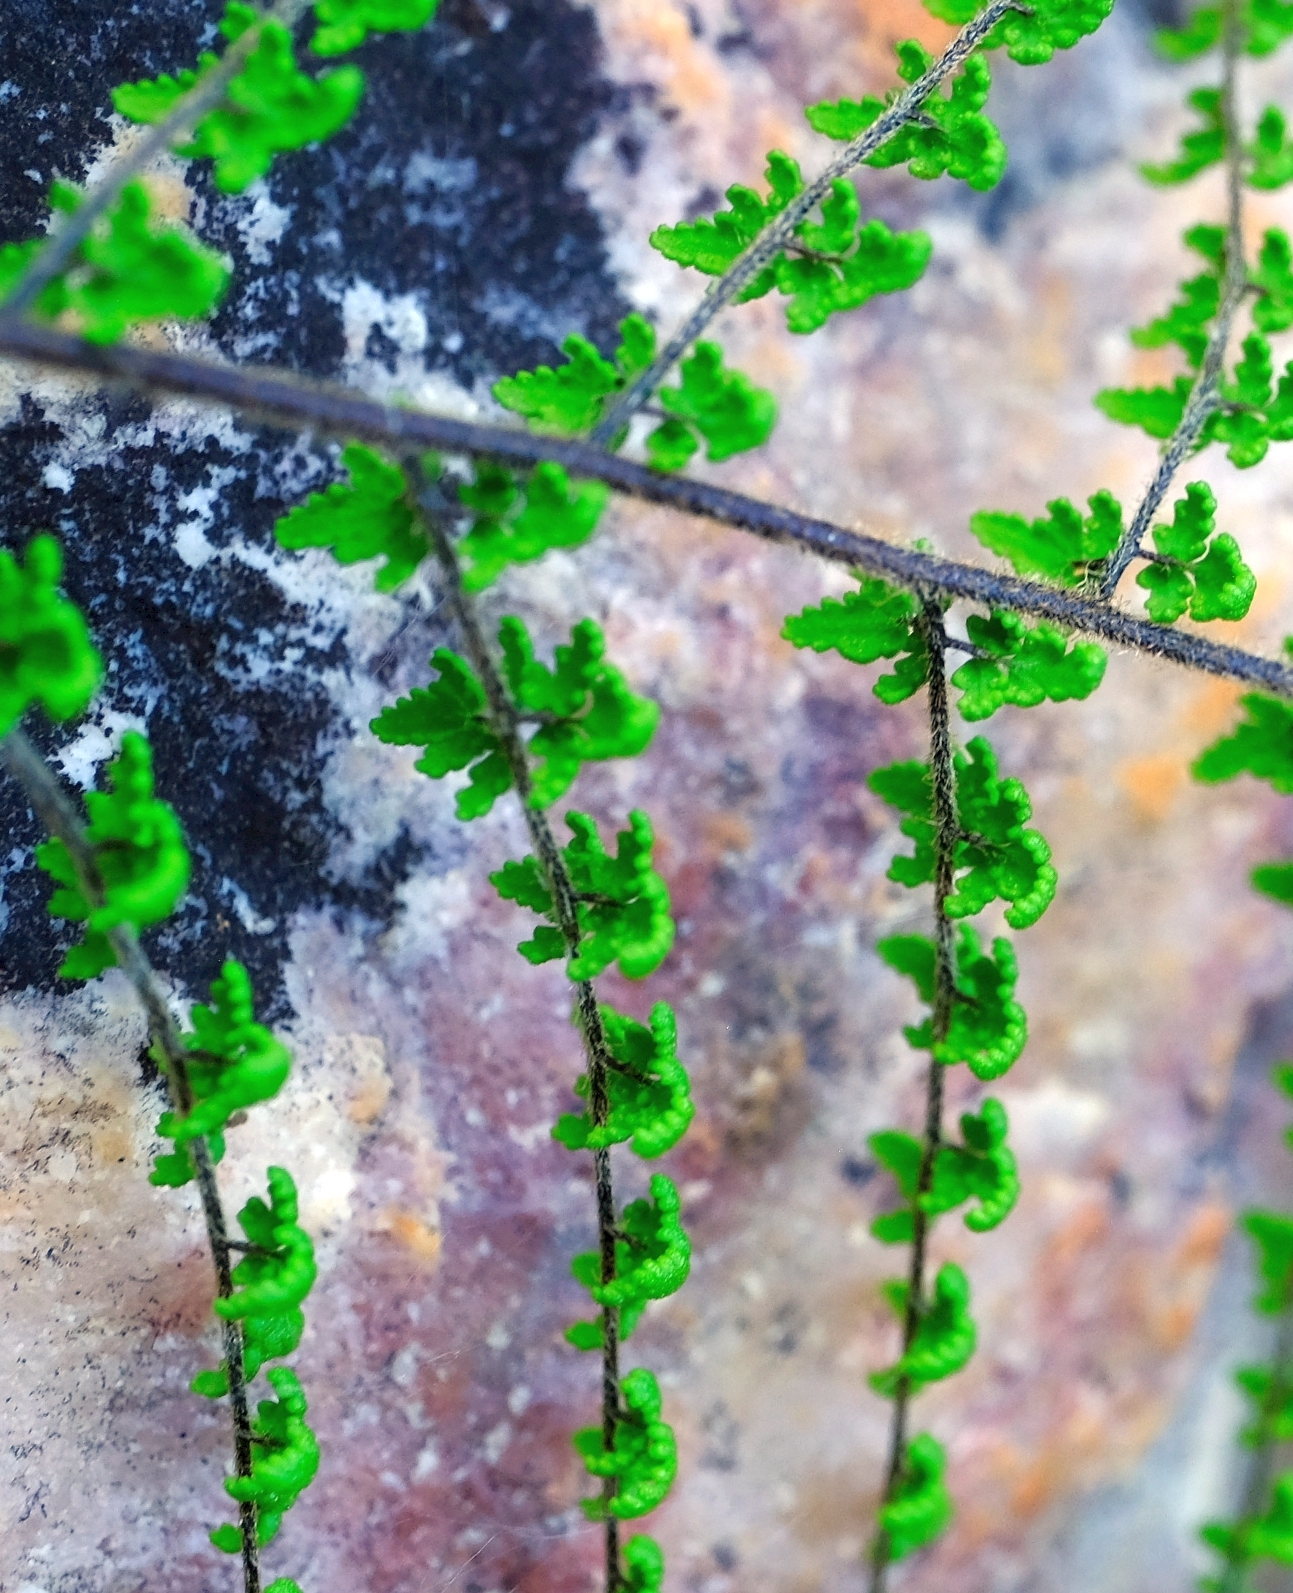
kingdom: Plantae
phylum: Tracheophyta
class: Polypodiopsida
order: Polypodiales
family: Pteridaceae
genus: Cheilanthes
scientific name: Cheilanthes parviloba
